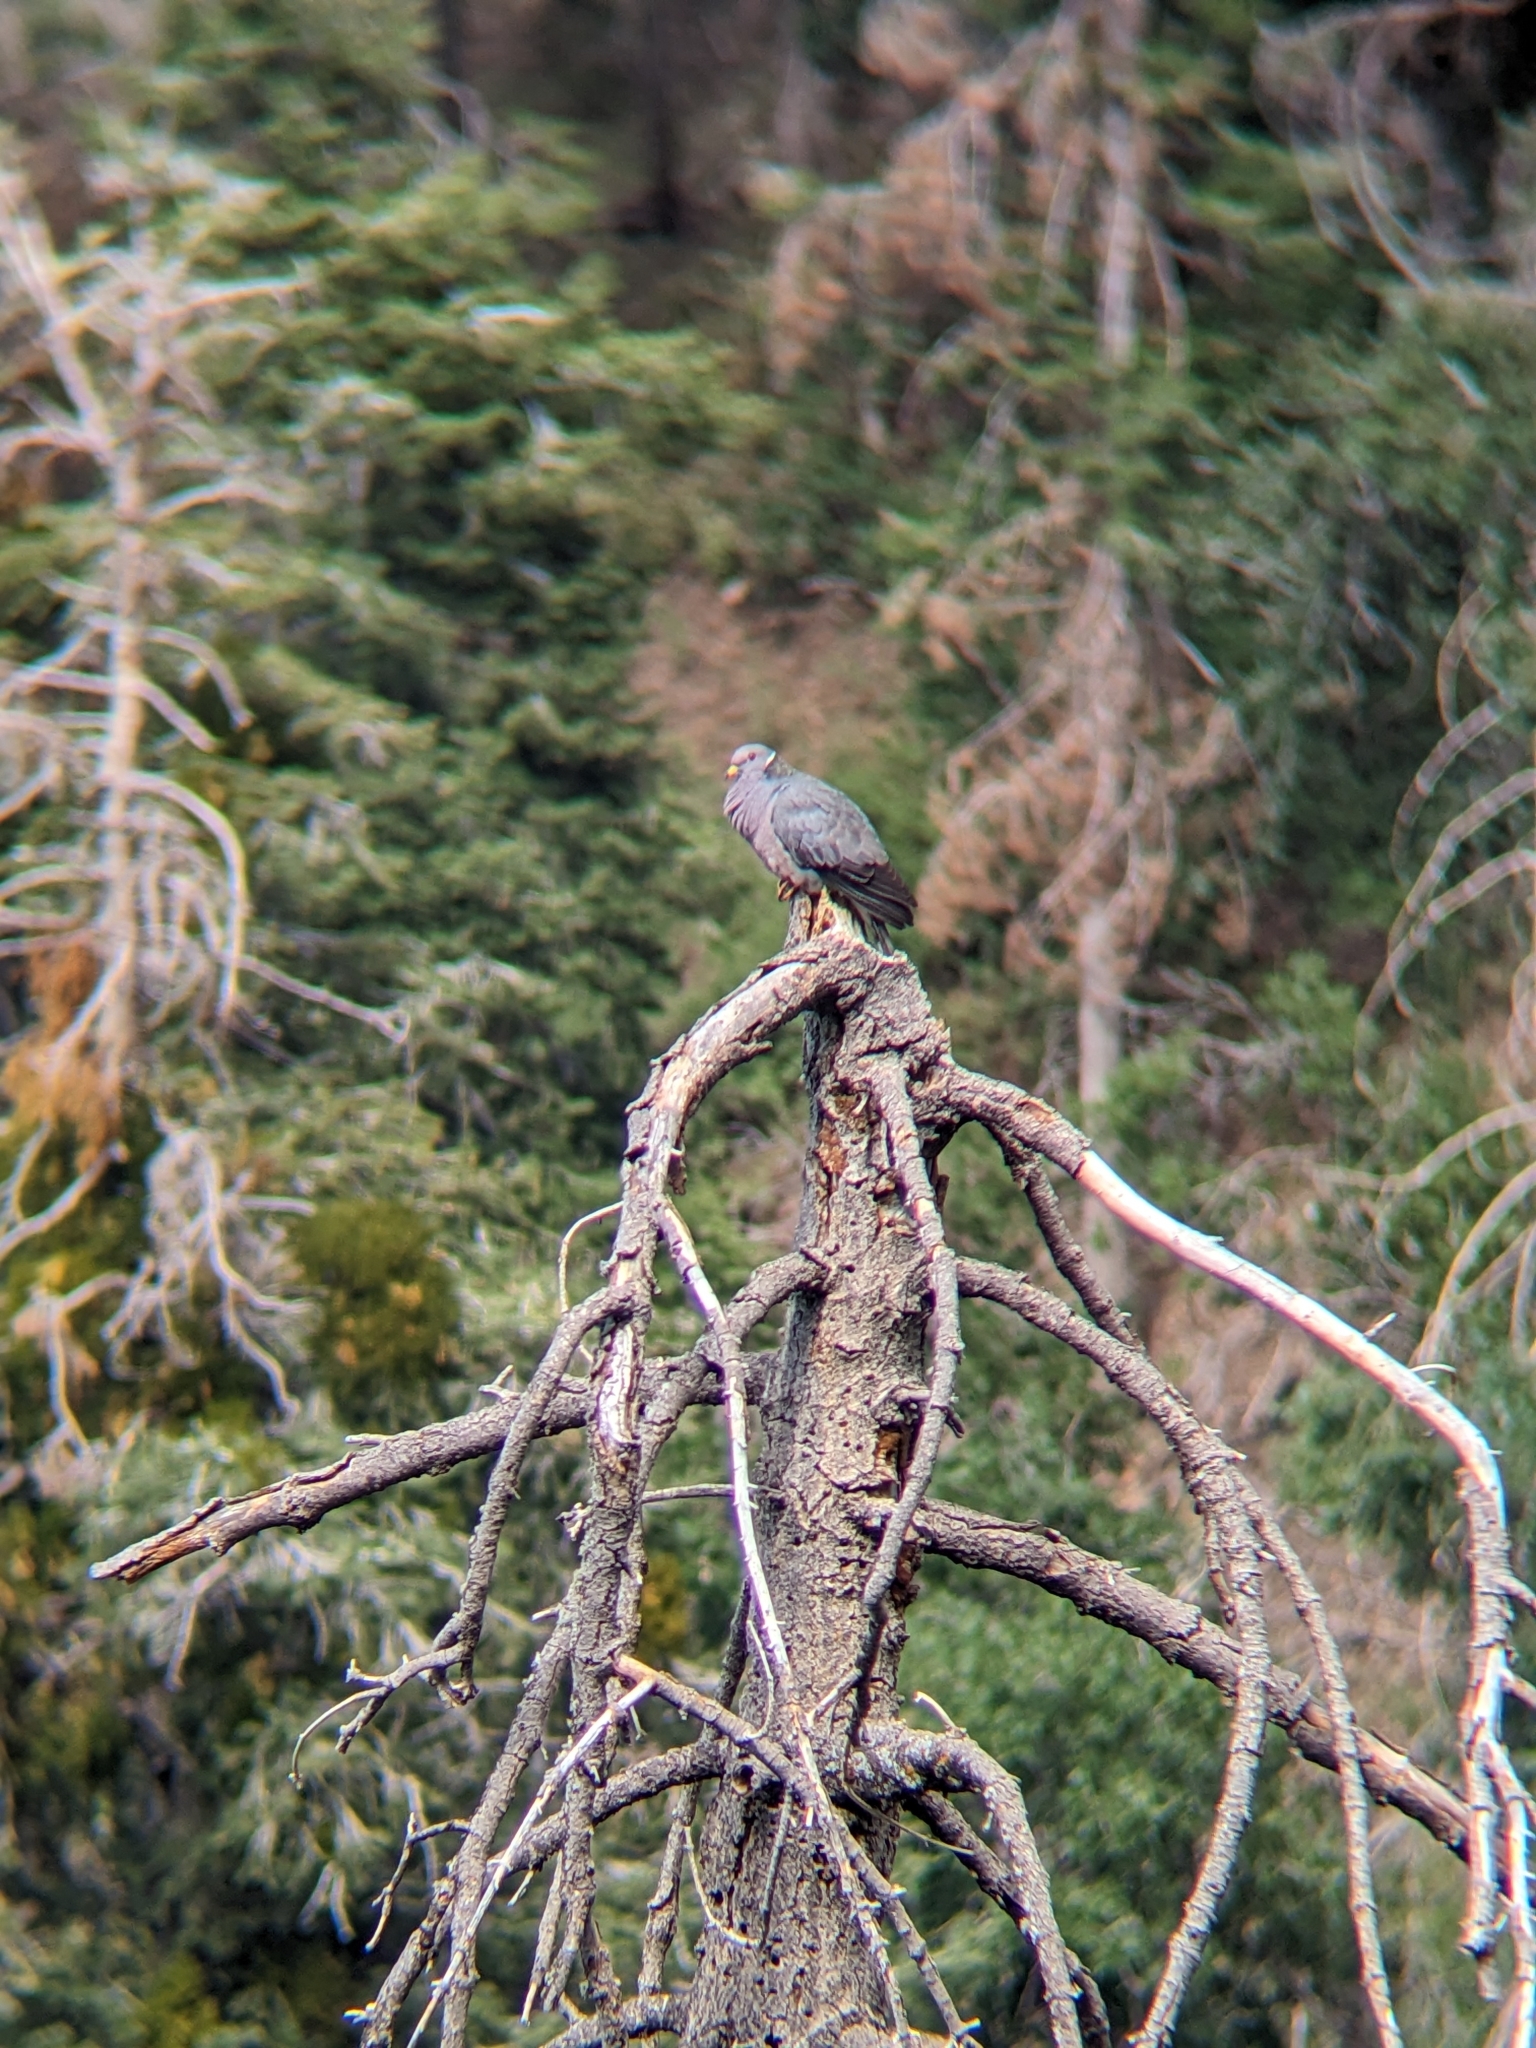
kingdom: Animalia
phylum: Chordata
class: Aves
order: Columbiformes
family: Columbidae
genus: Patagioenas
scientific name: Patagioenas fasciata
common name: Band-tailed pigeon
